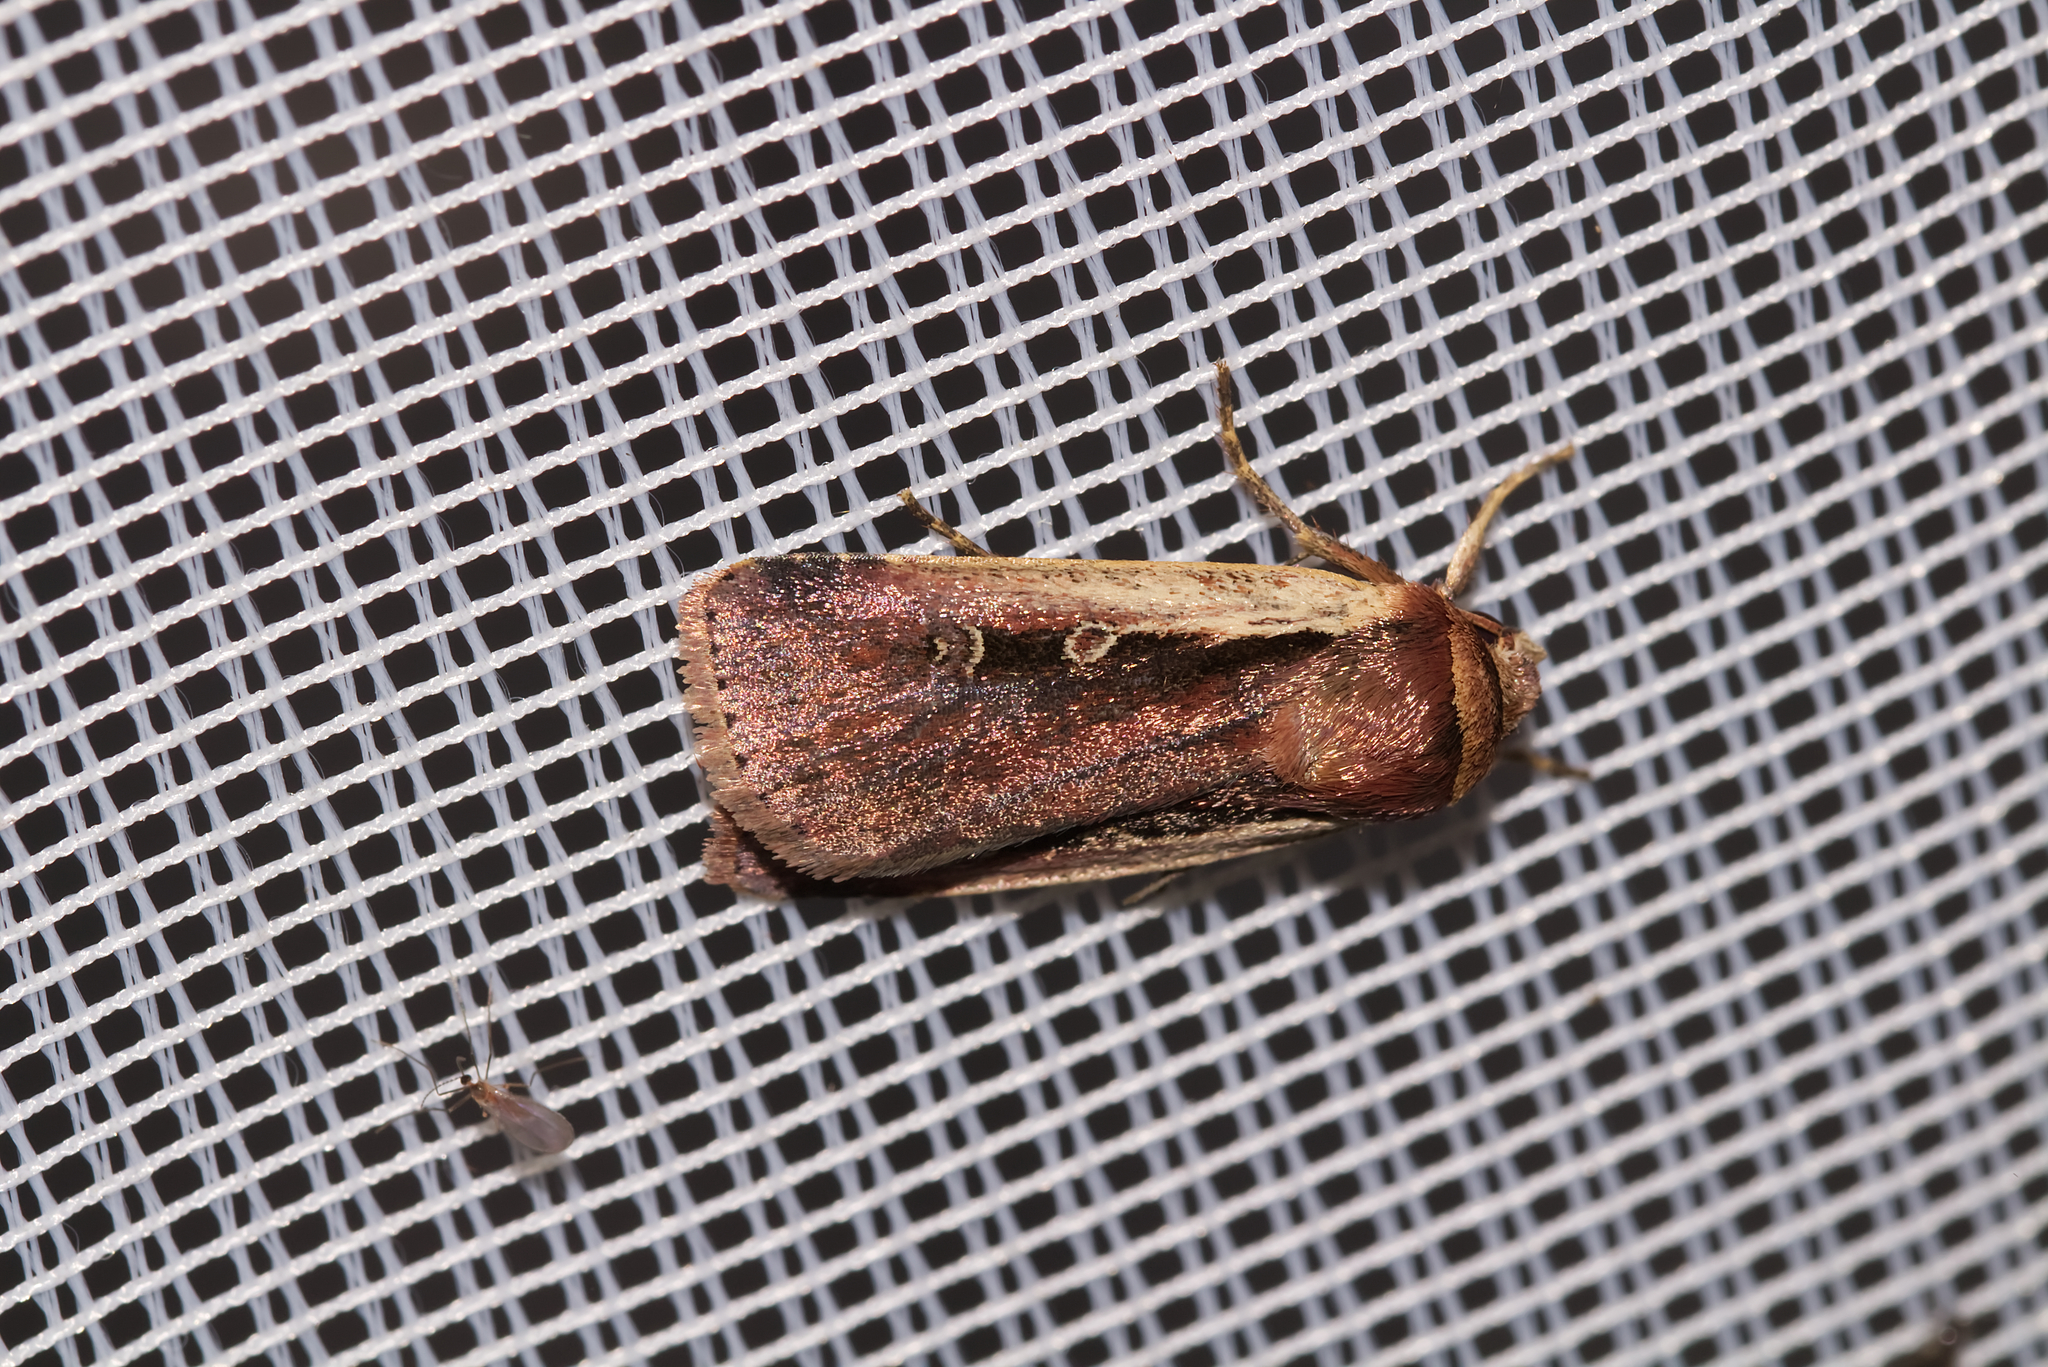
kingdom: Animalia
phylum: Arthropoda
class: Insecta
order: Lepidoptera
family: Noctuidae
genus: Ochropleura
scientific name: Ochropleura plecta
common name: Flame shoulder
